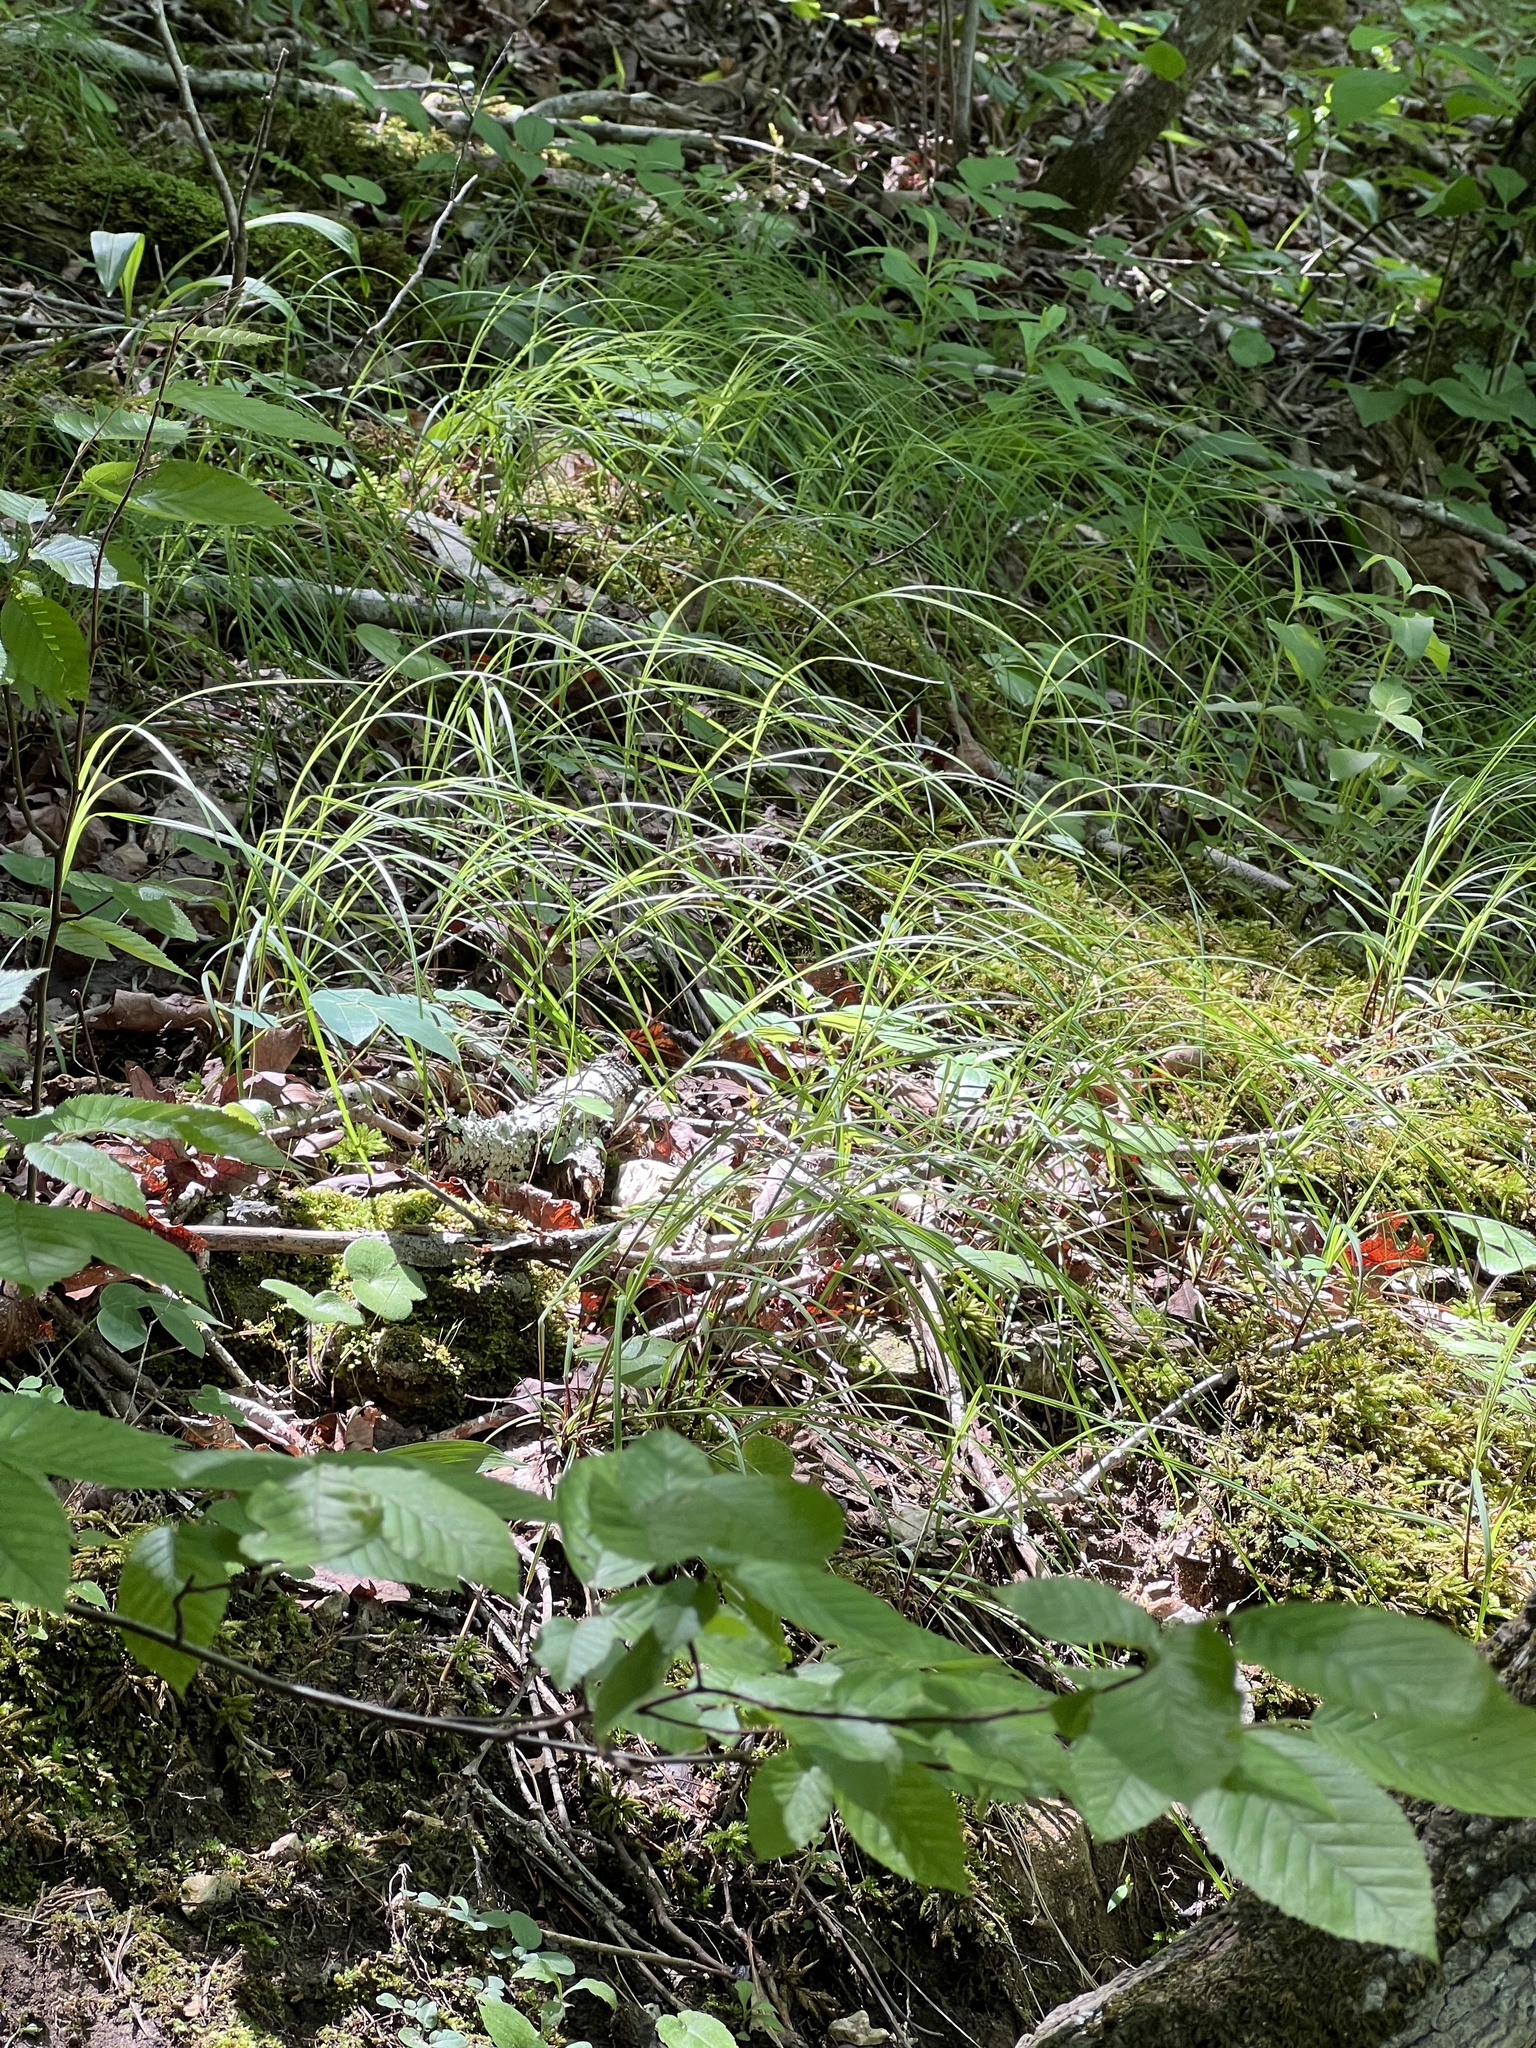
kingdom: Plantae
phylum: Tracheophyta
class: Liliopsida
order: Poales
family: Cyperaceae
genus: Carex
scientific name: Carex woodii
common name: Wood's sedge
